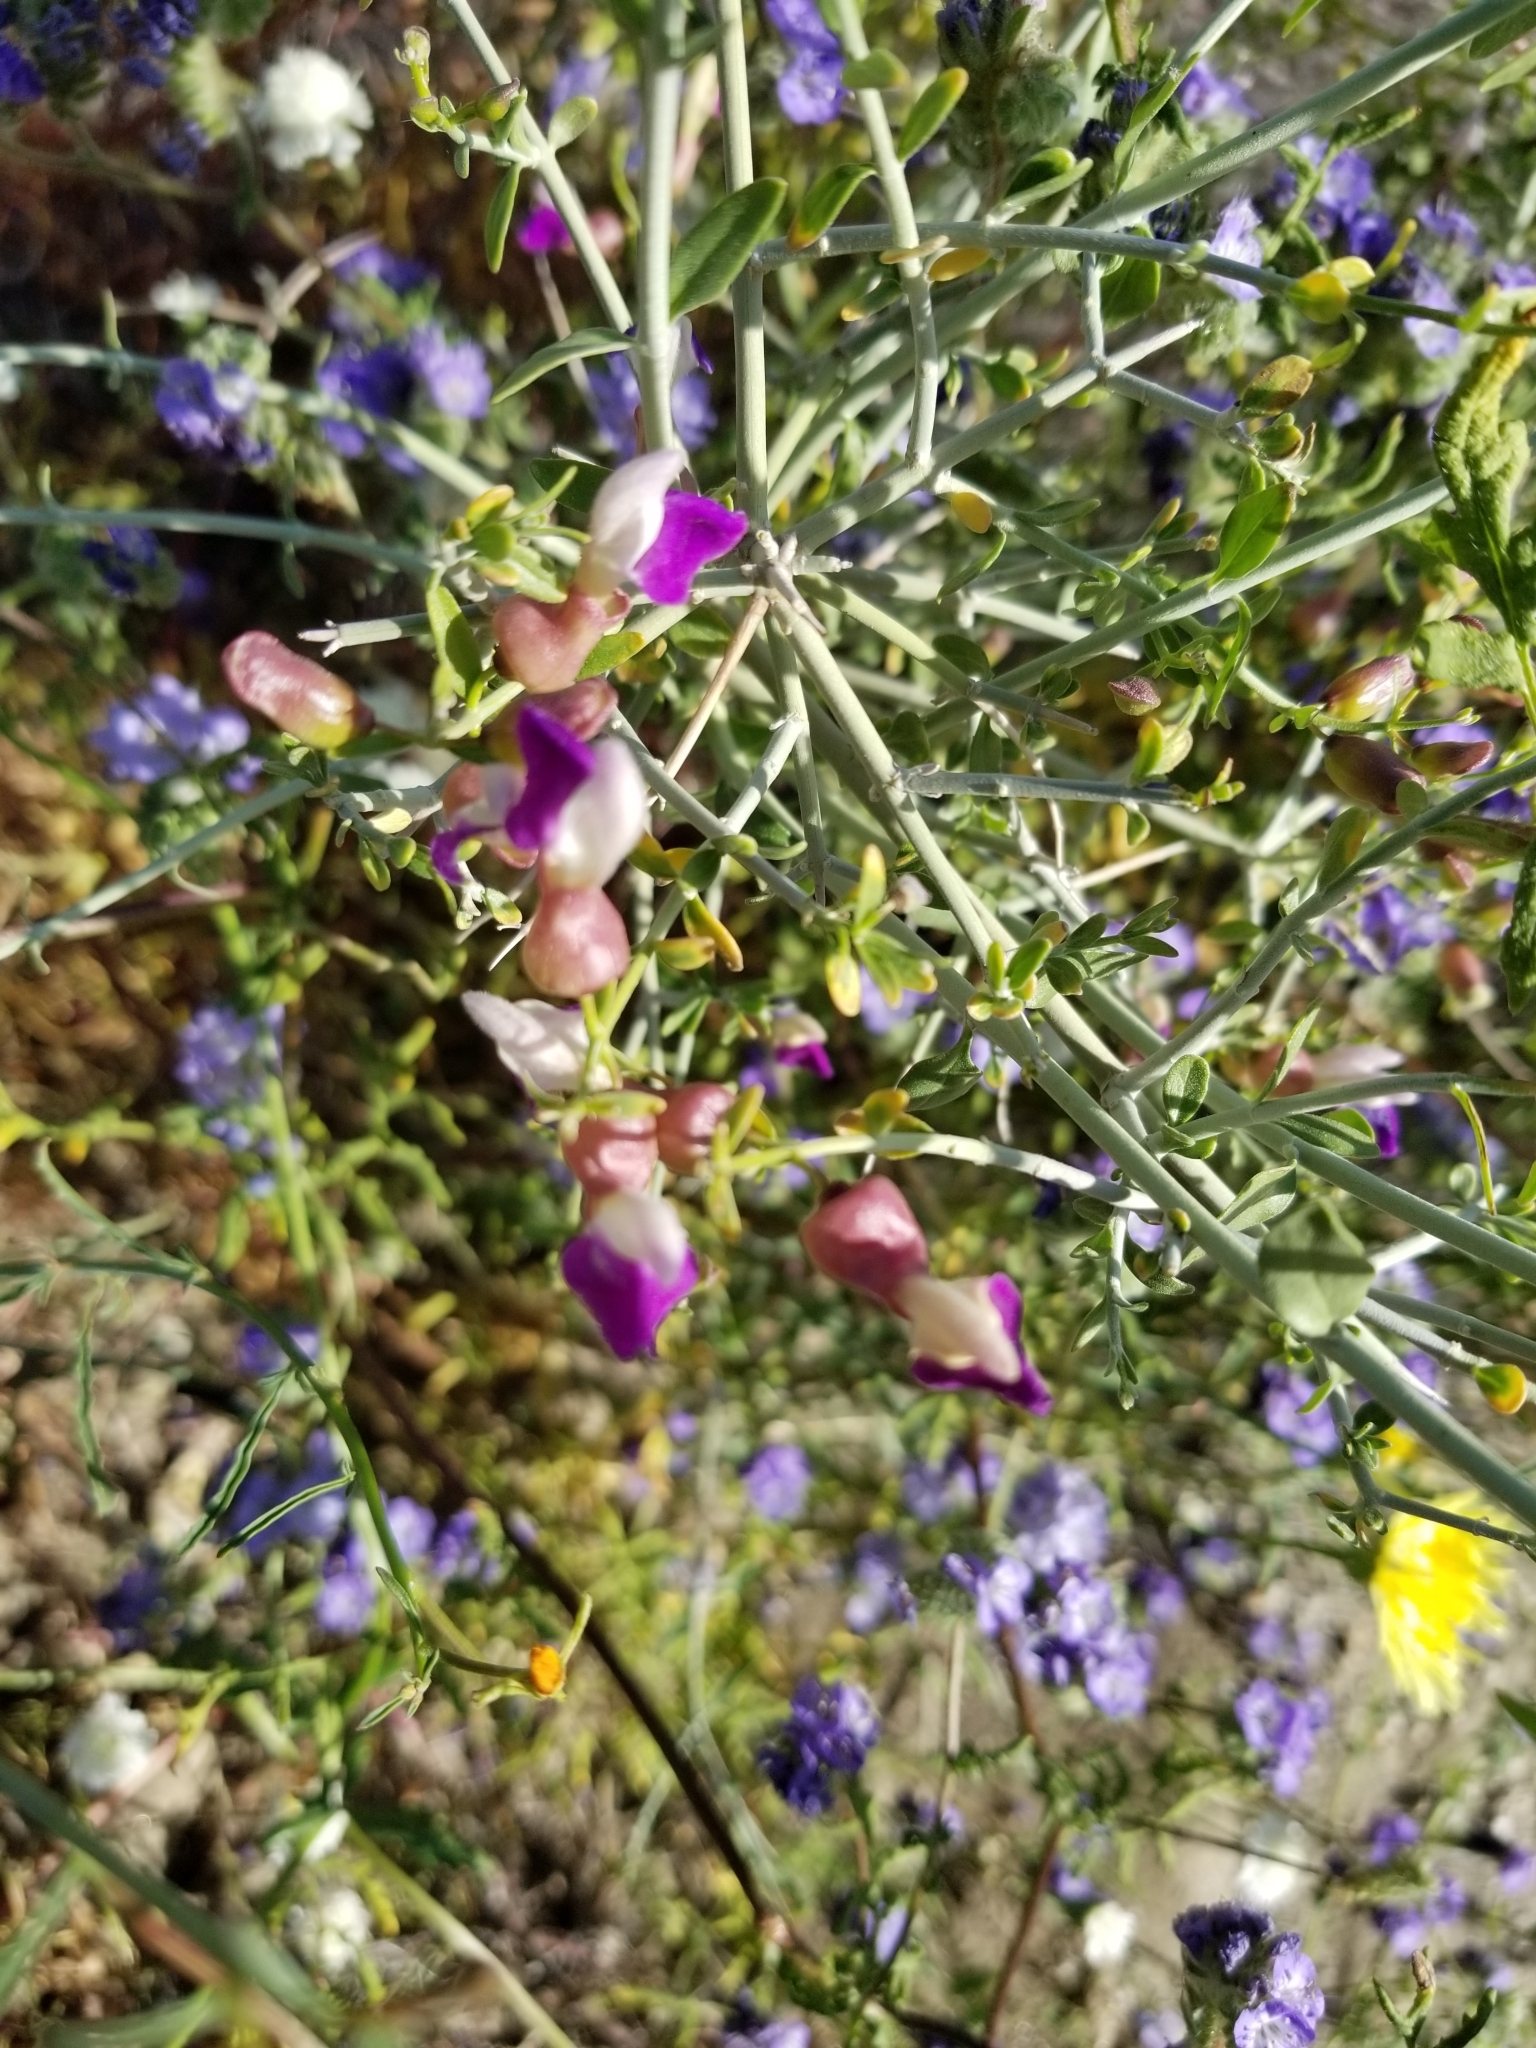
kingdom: Plantae
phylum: Tracheophyta
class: Magnoliopsida
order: Lamiales
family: Lamiaceae
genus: Scutellaria
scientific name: Scutellaria mexicana
